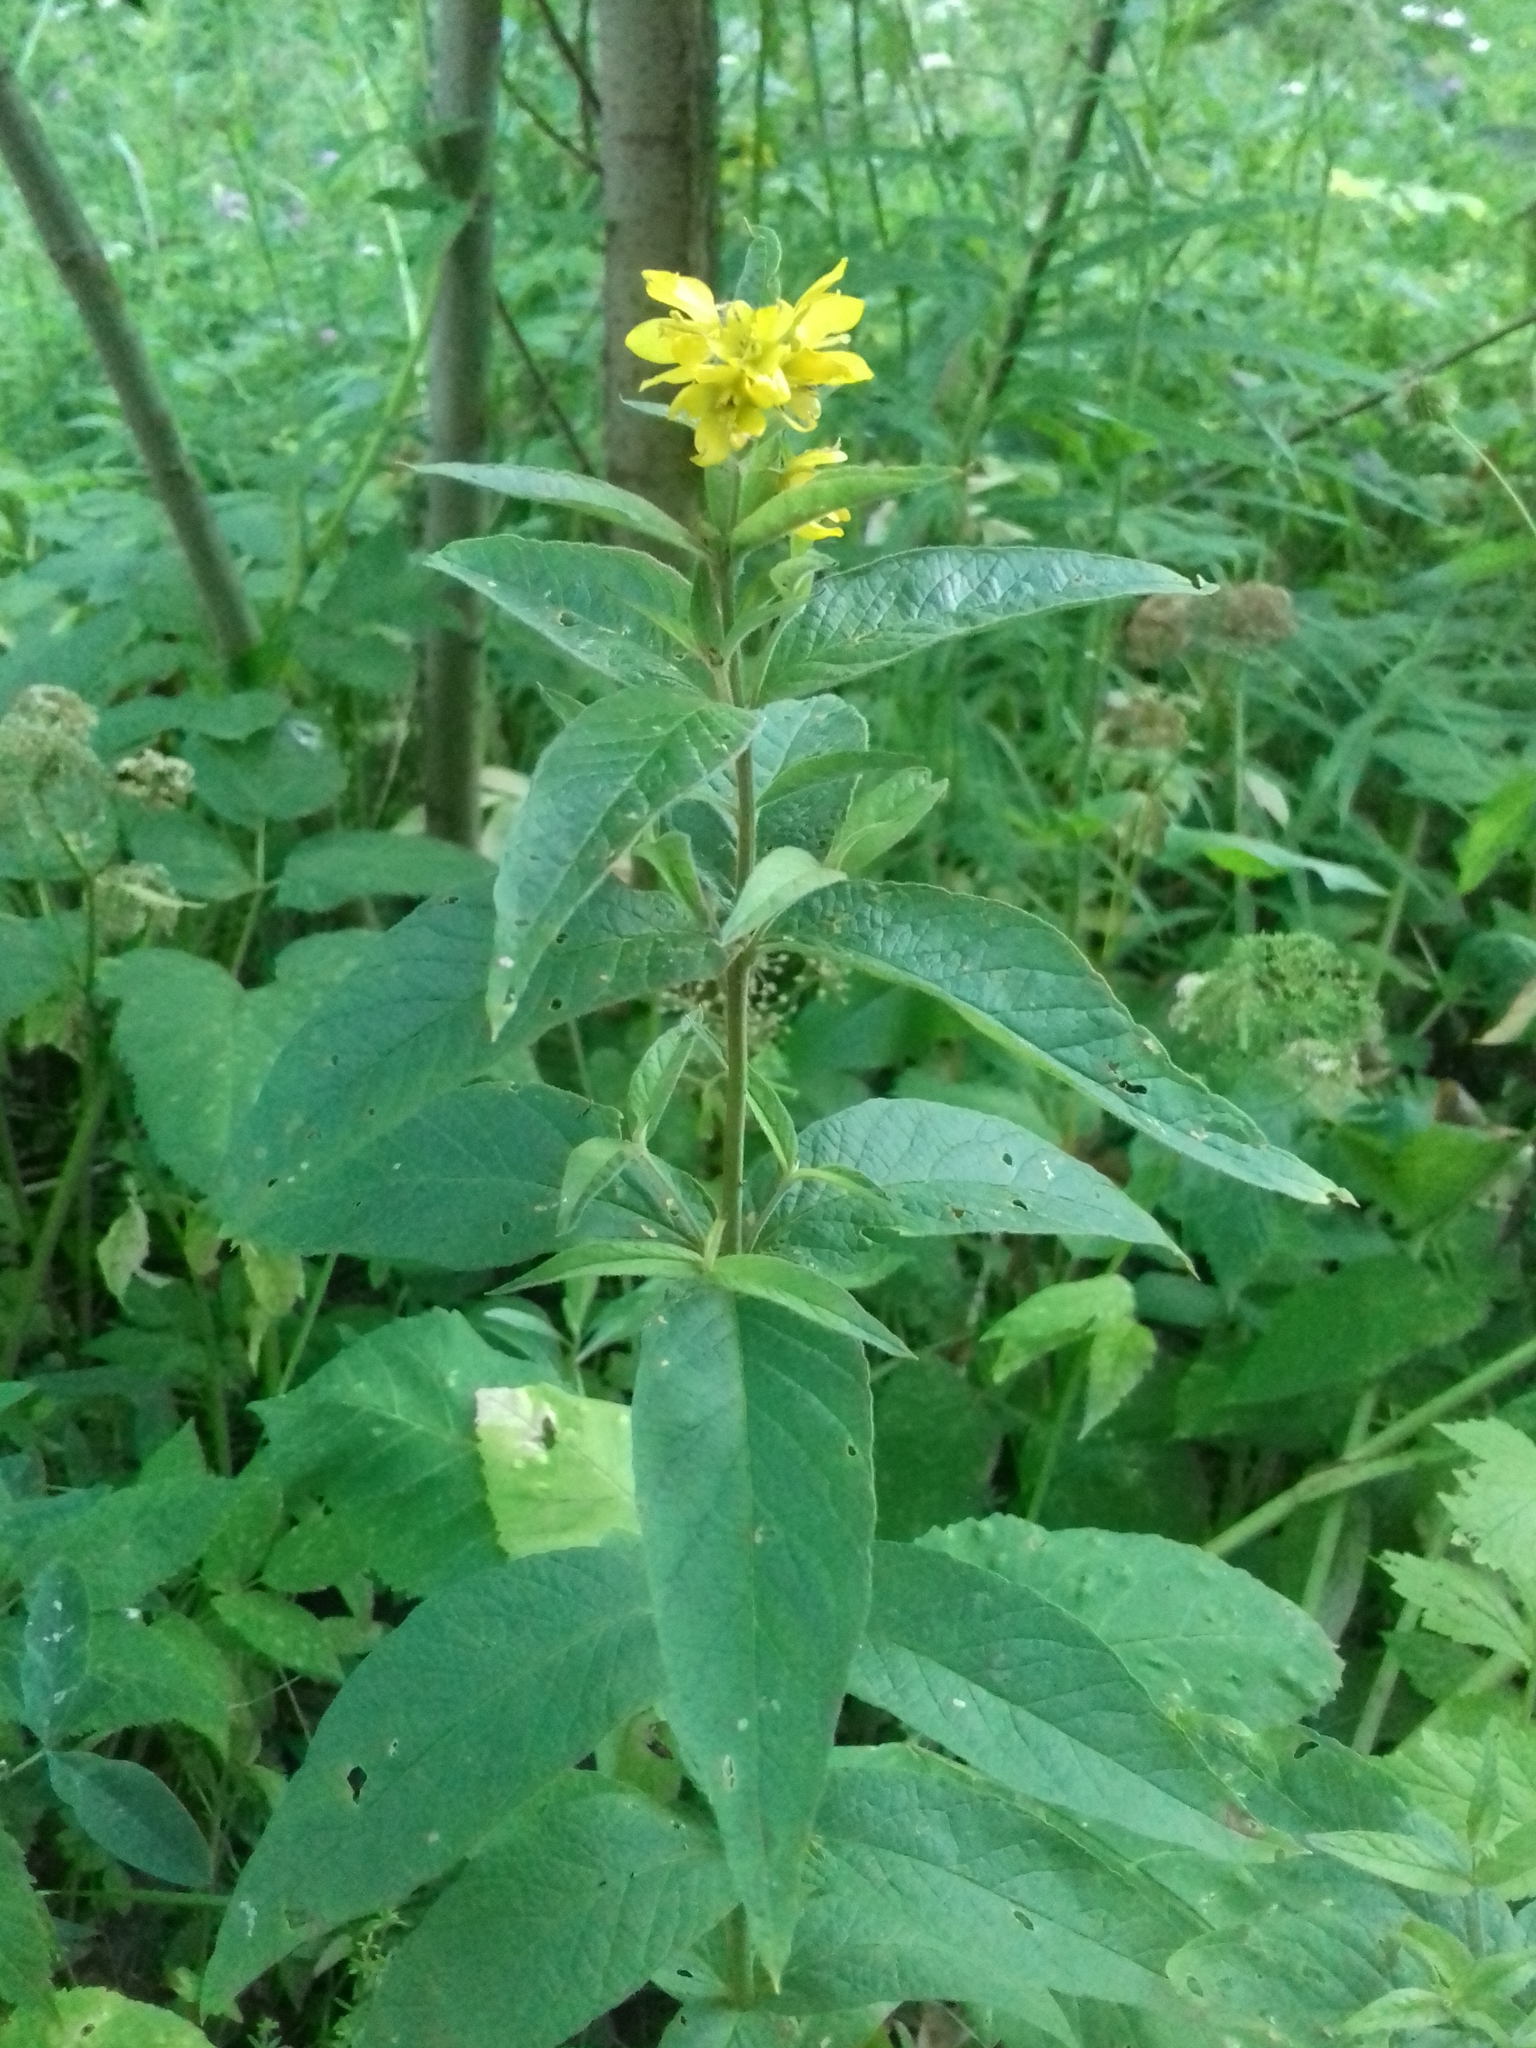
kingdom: Plantae
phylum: Tracheophyta
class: Magnoliopsida
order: Ericales
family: Primulaceae
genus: Lysimachia
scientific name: Lysimachia vulgaris
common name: Yellow loosestrife
